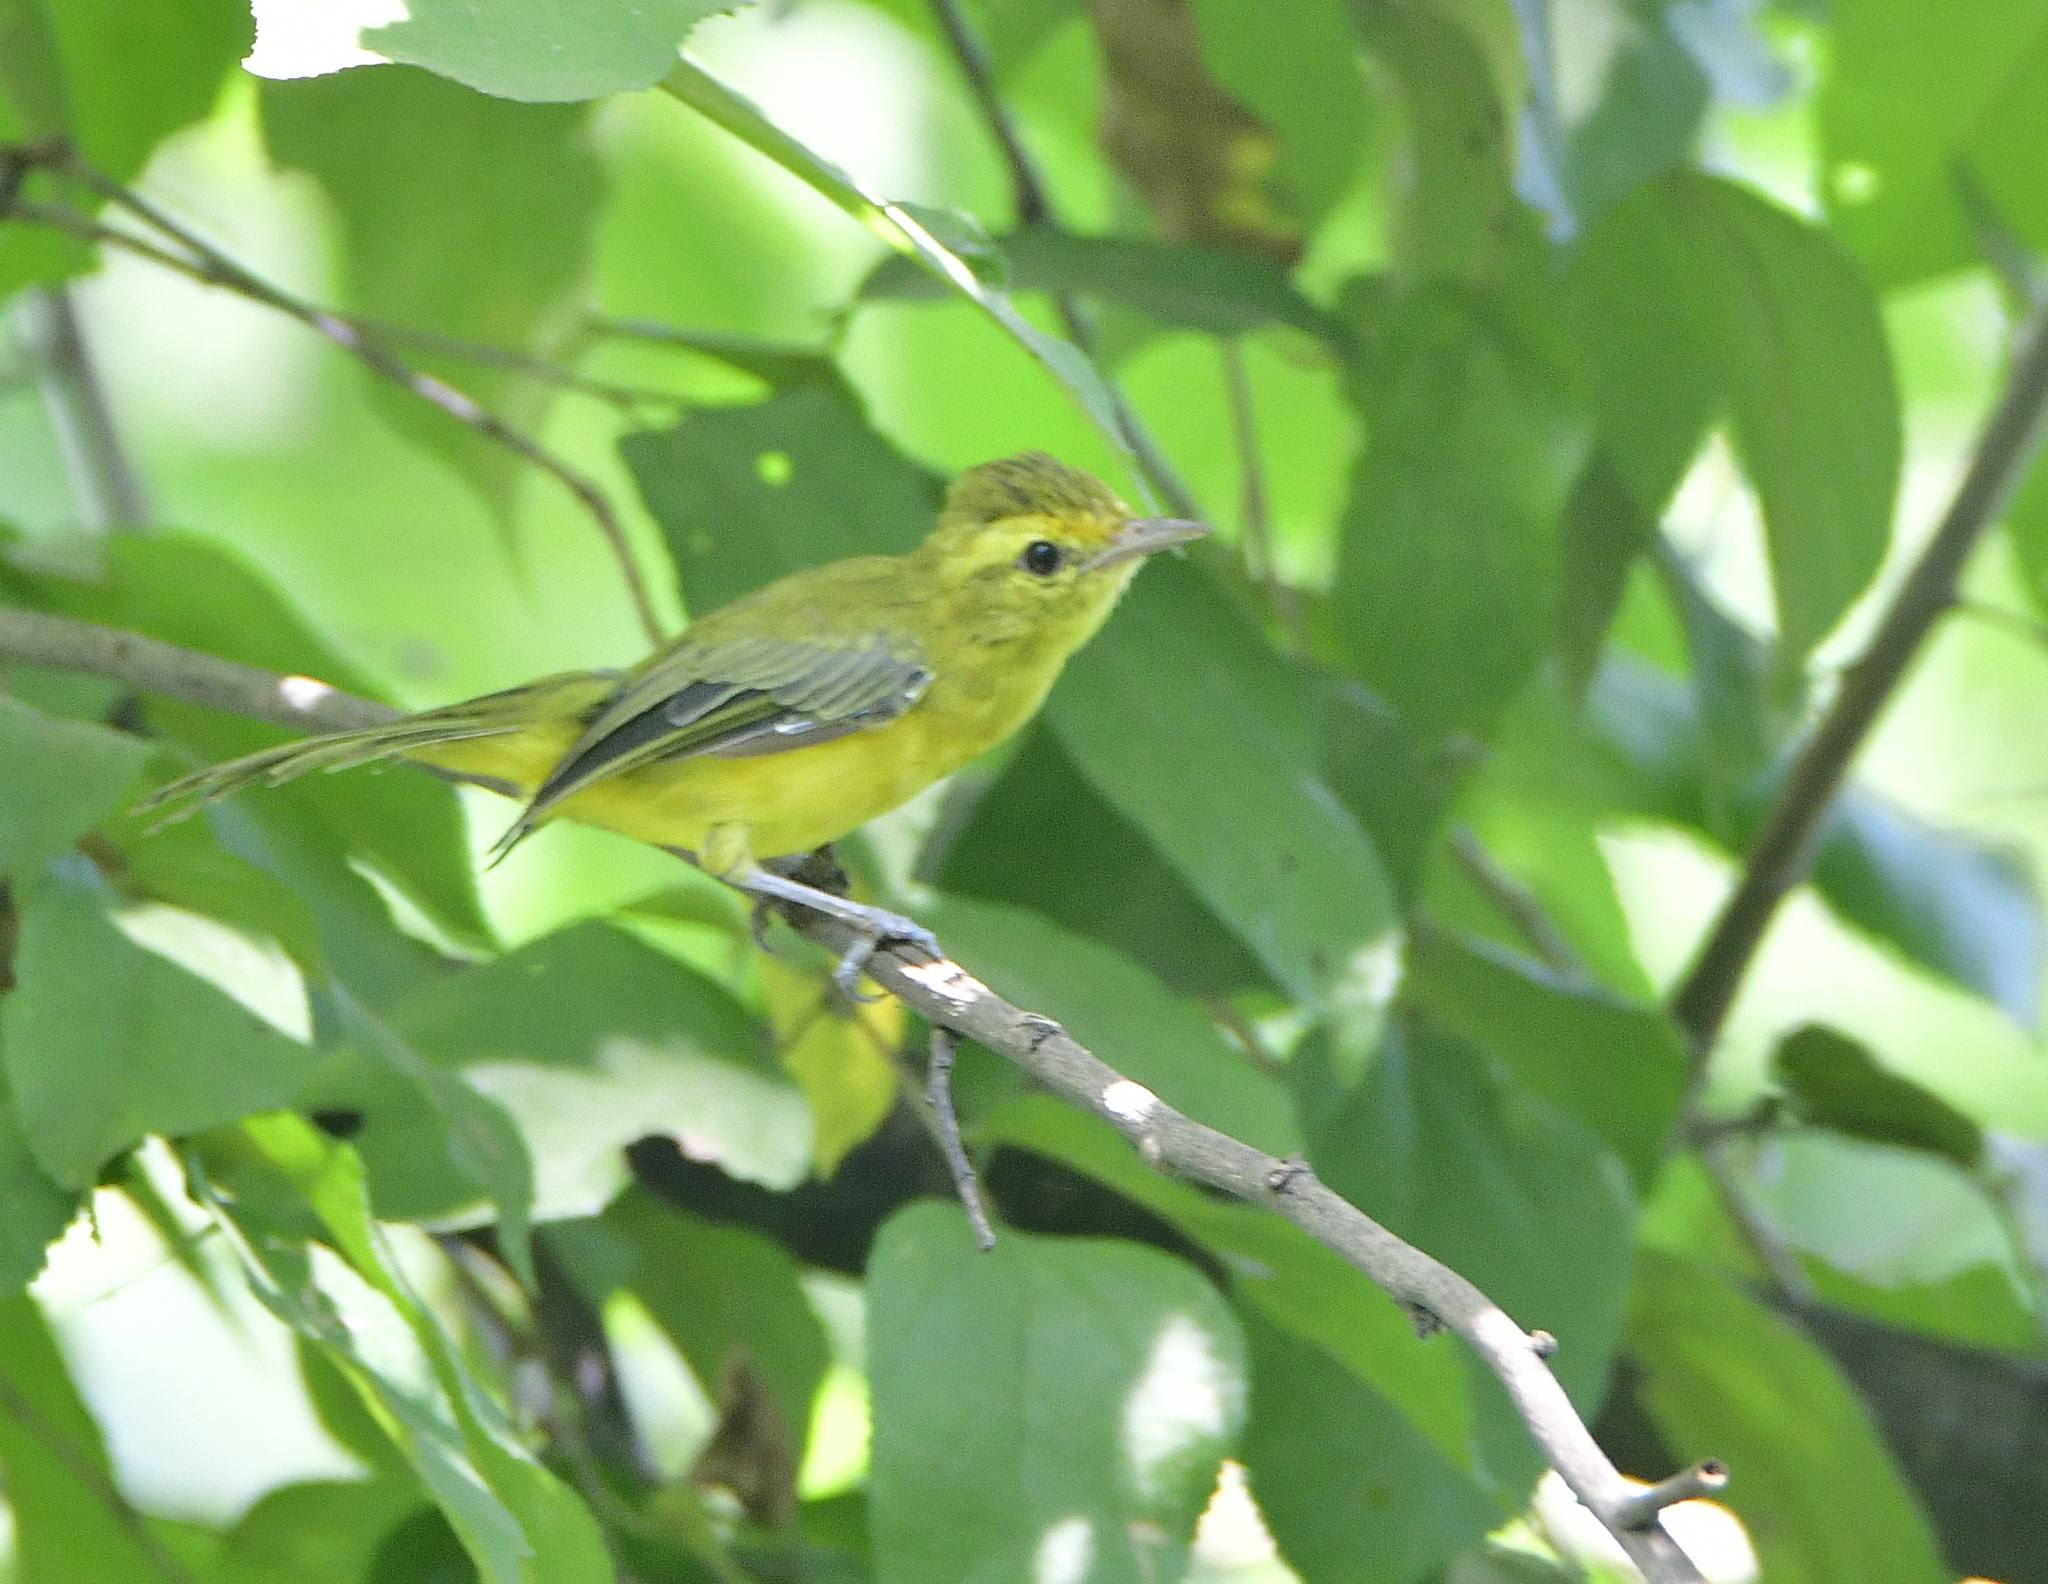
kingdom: Animalia
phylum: Chordata
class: Aves
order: Passeriformes
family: Vireonidae
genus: Vireo
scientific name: Vireo hypochryseus
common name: Golden vireo
